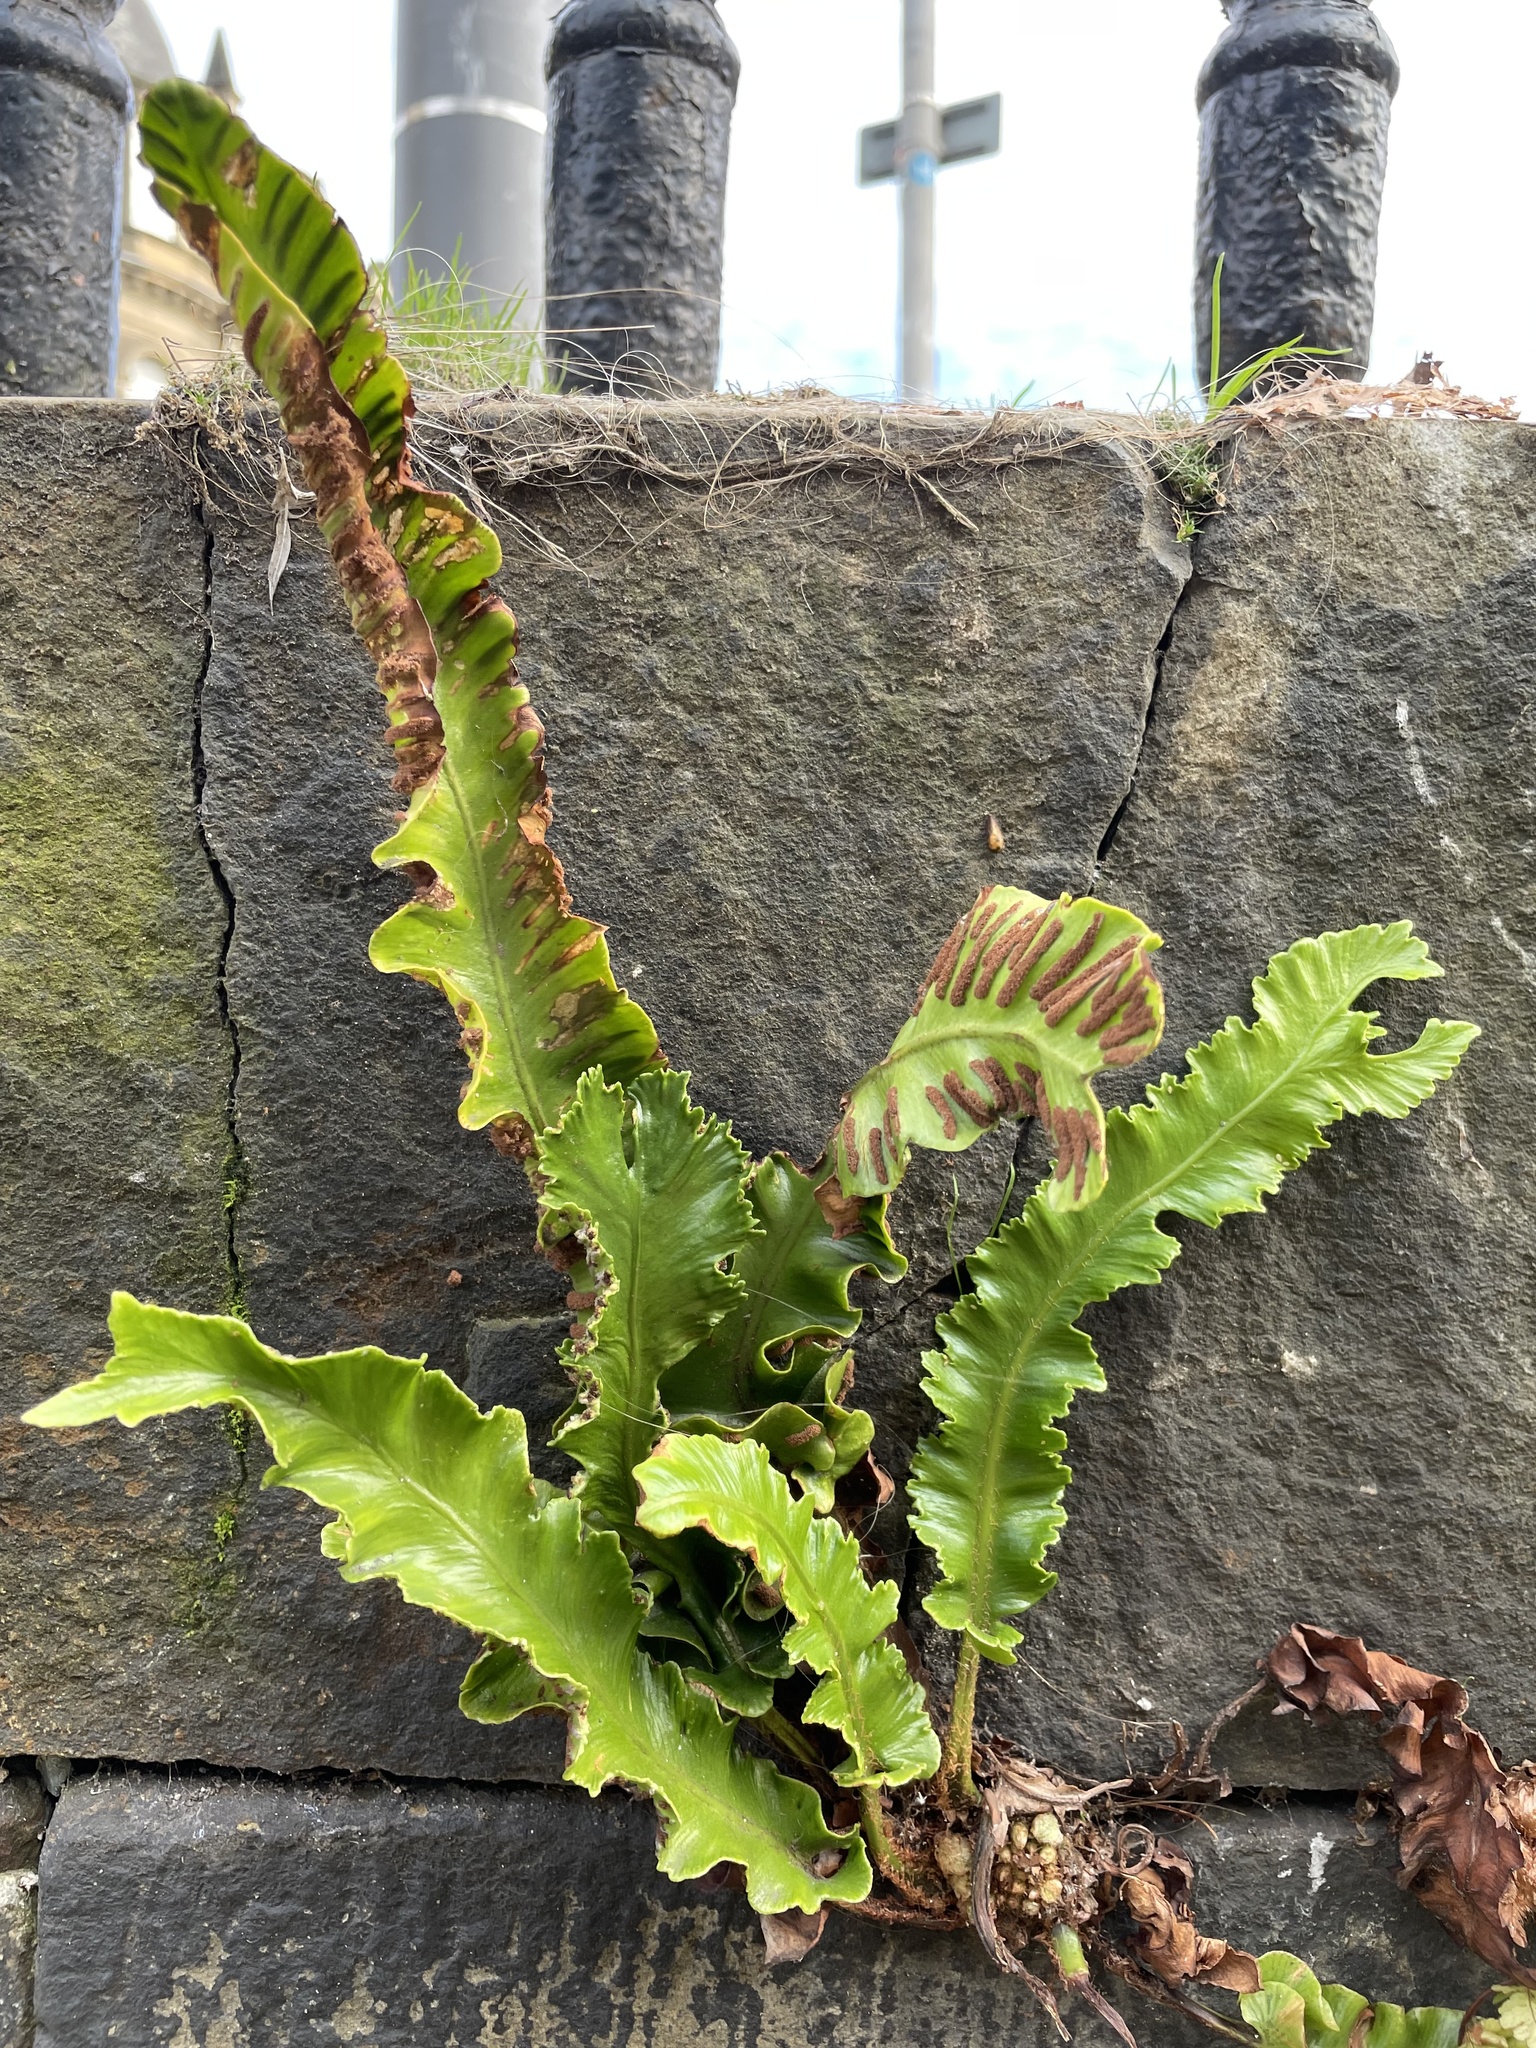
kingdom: Plantae
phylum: Tracheophyta
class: Polypodiopsida
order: Polypodiales
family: Aspleniaceae
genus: Asplenium
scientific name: Asplenium scolopendrium
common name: Hart's-tongue fern
